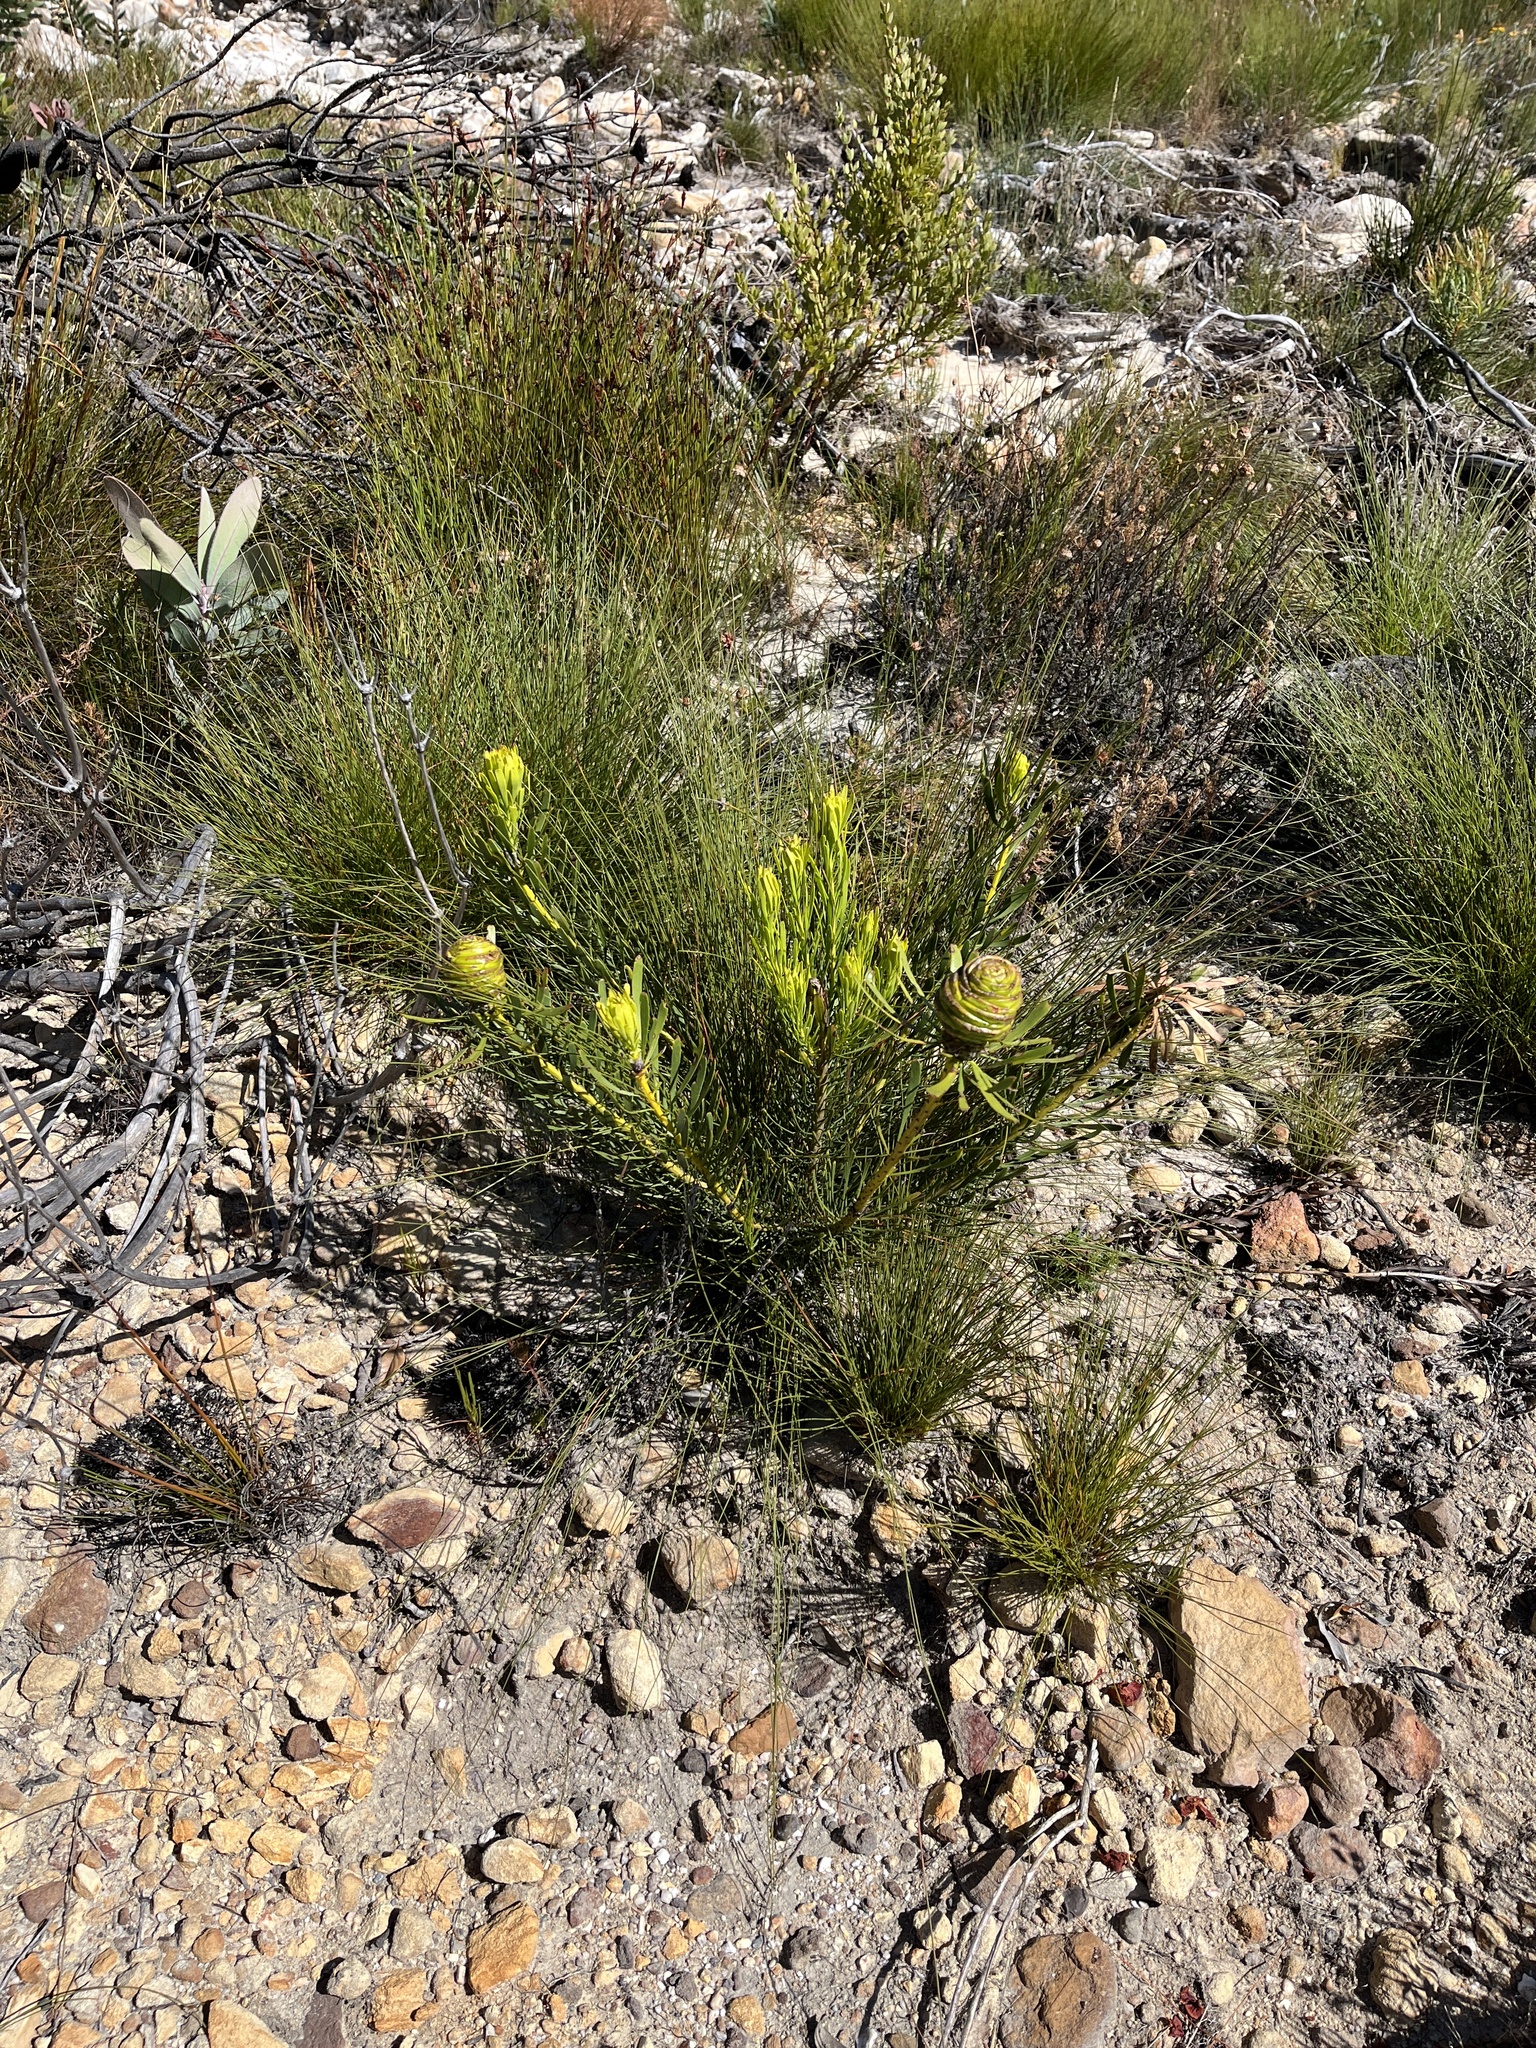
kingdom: Plantae
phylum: Tracheophyta
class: Magnoliopsida
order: Proteales
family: Proteaceae
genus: Leucadendron
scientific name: Leucadendron platyspermum
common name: Plate-seed conebush
